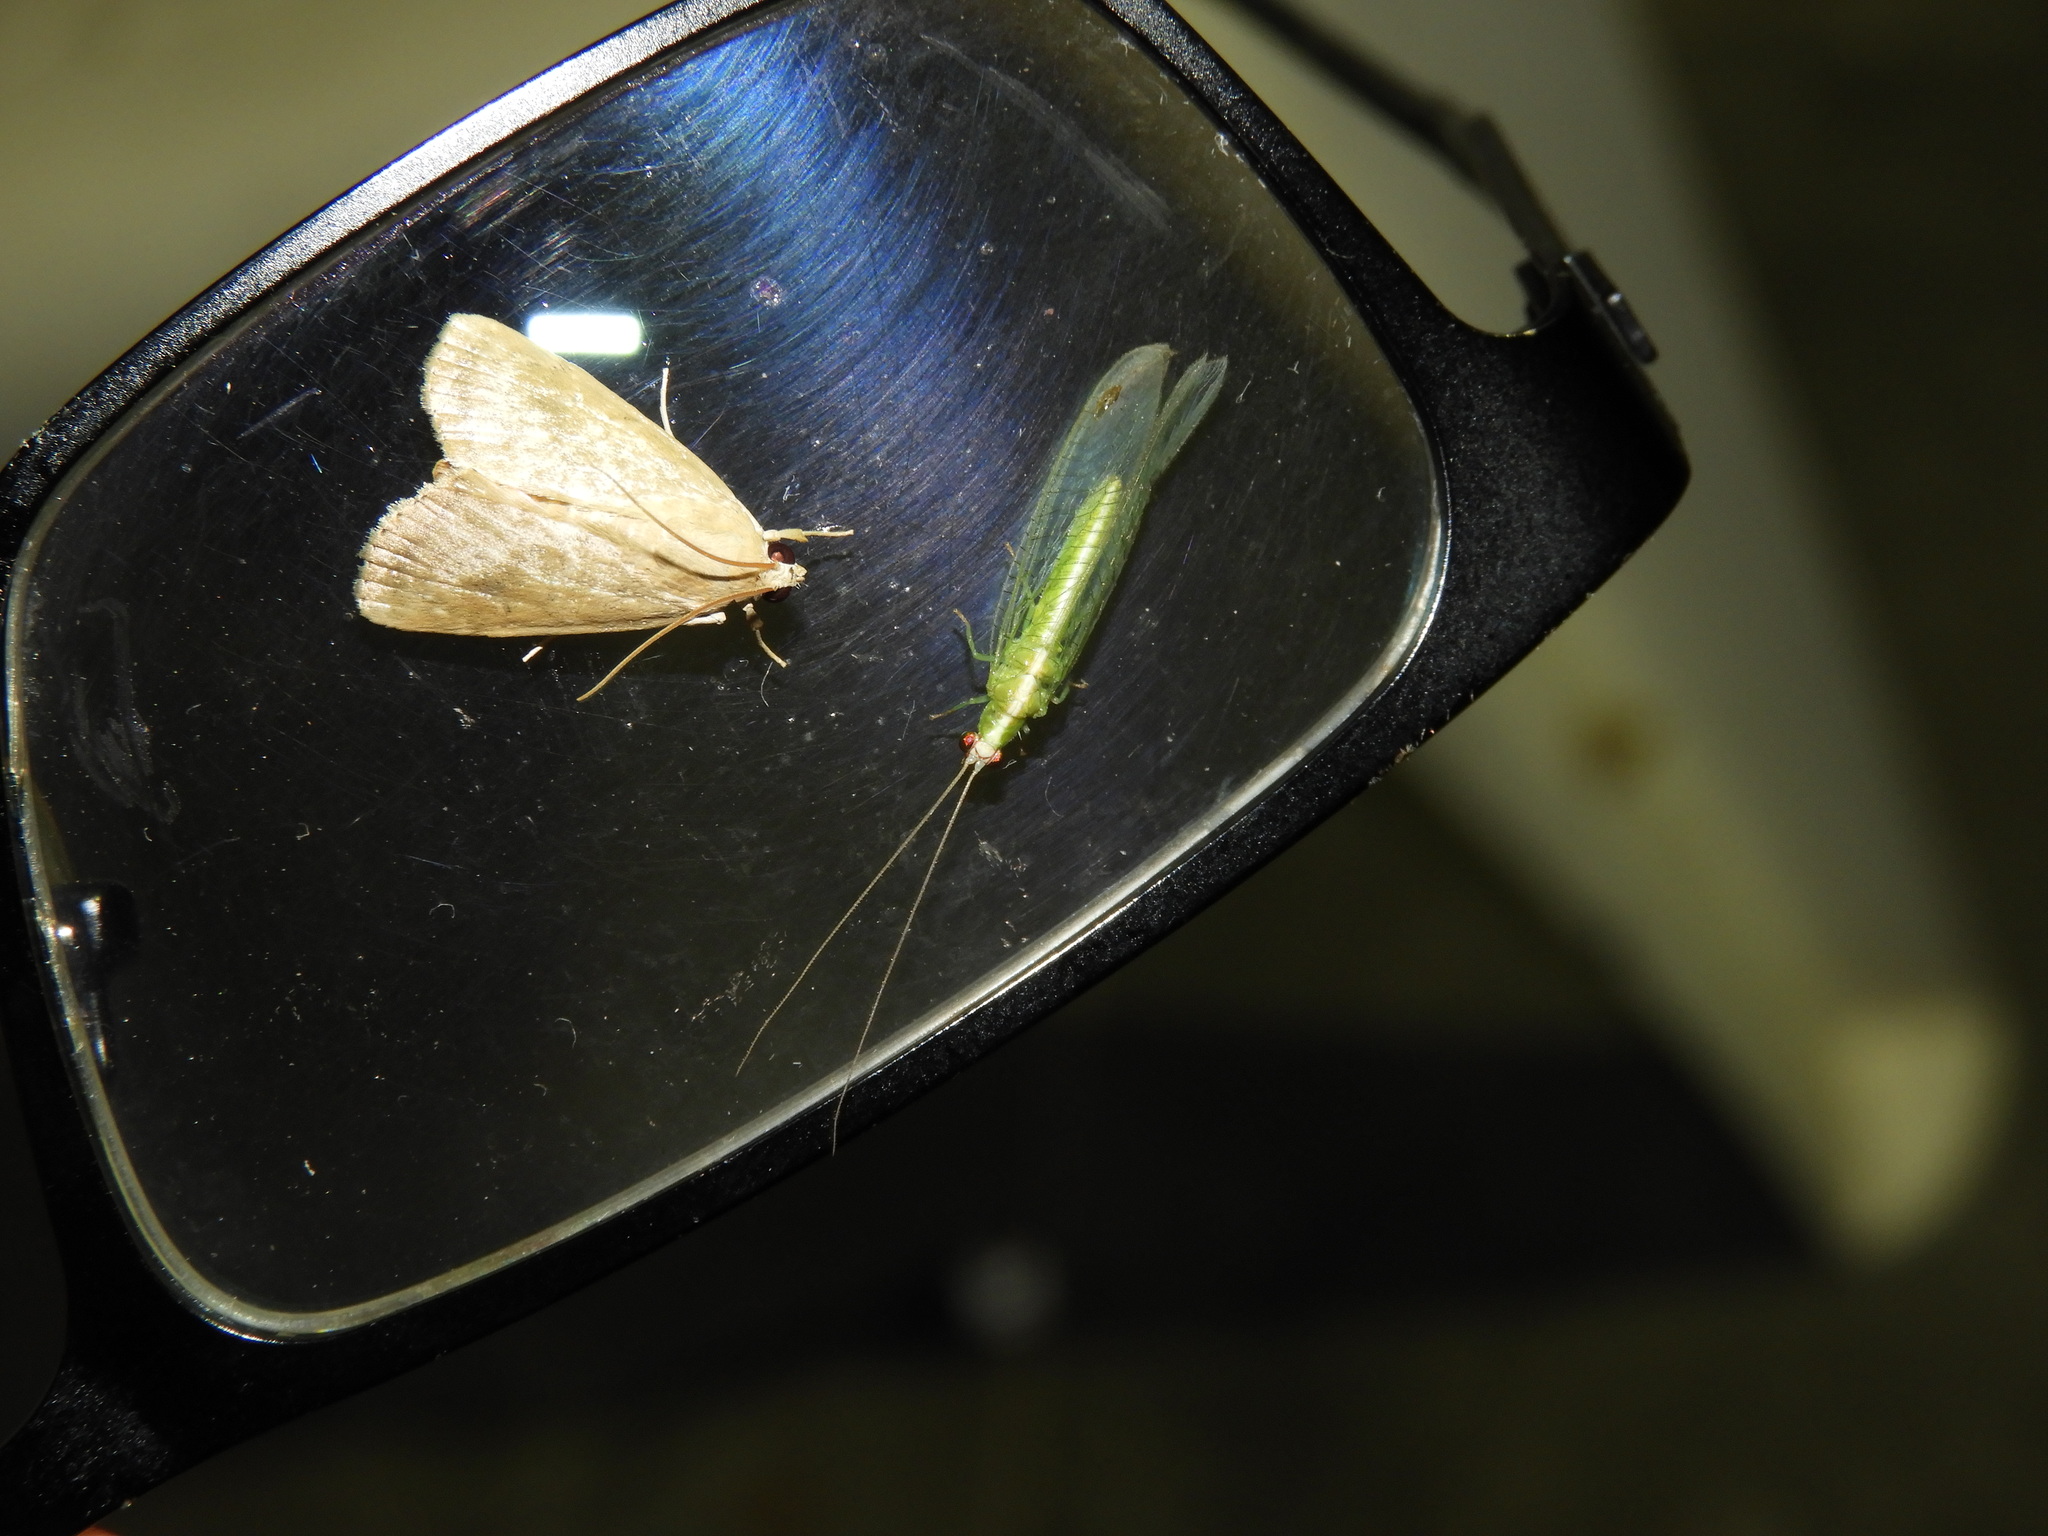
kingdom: Animalia
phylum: Arthropoda
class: Insecta
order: Neuroptera
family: Chrysopidae
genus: Chrysopodes
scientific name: Chrysopodes
